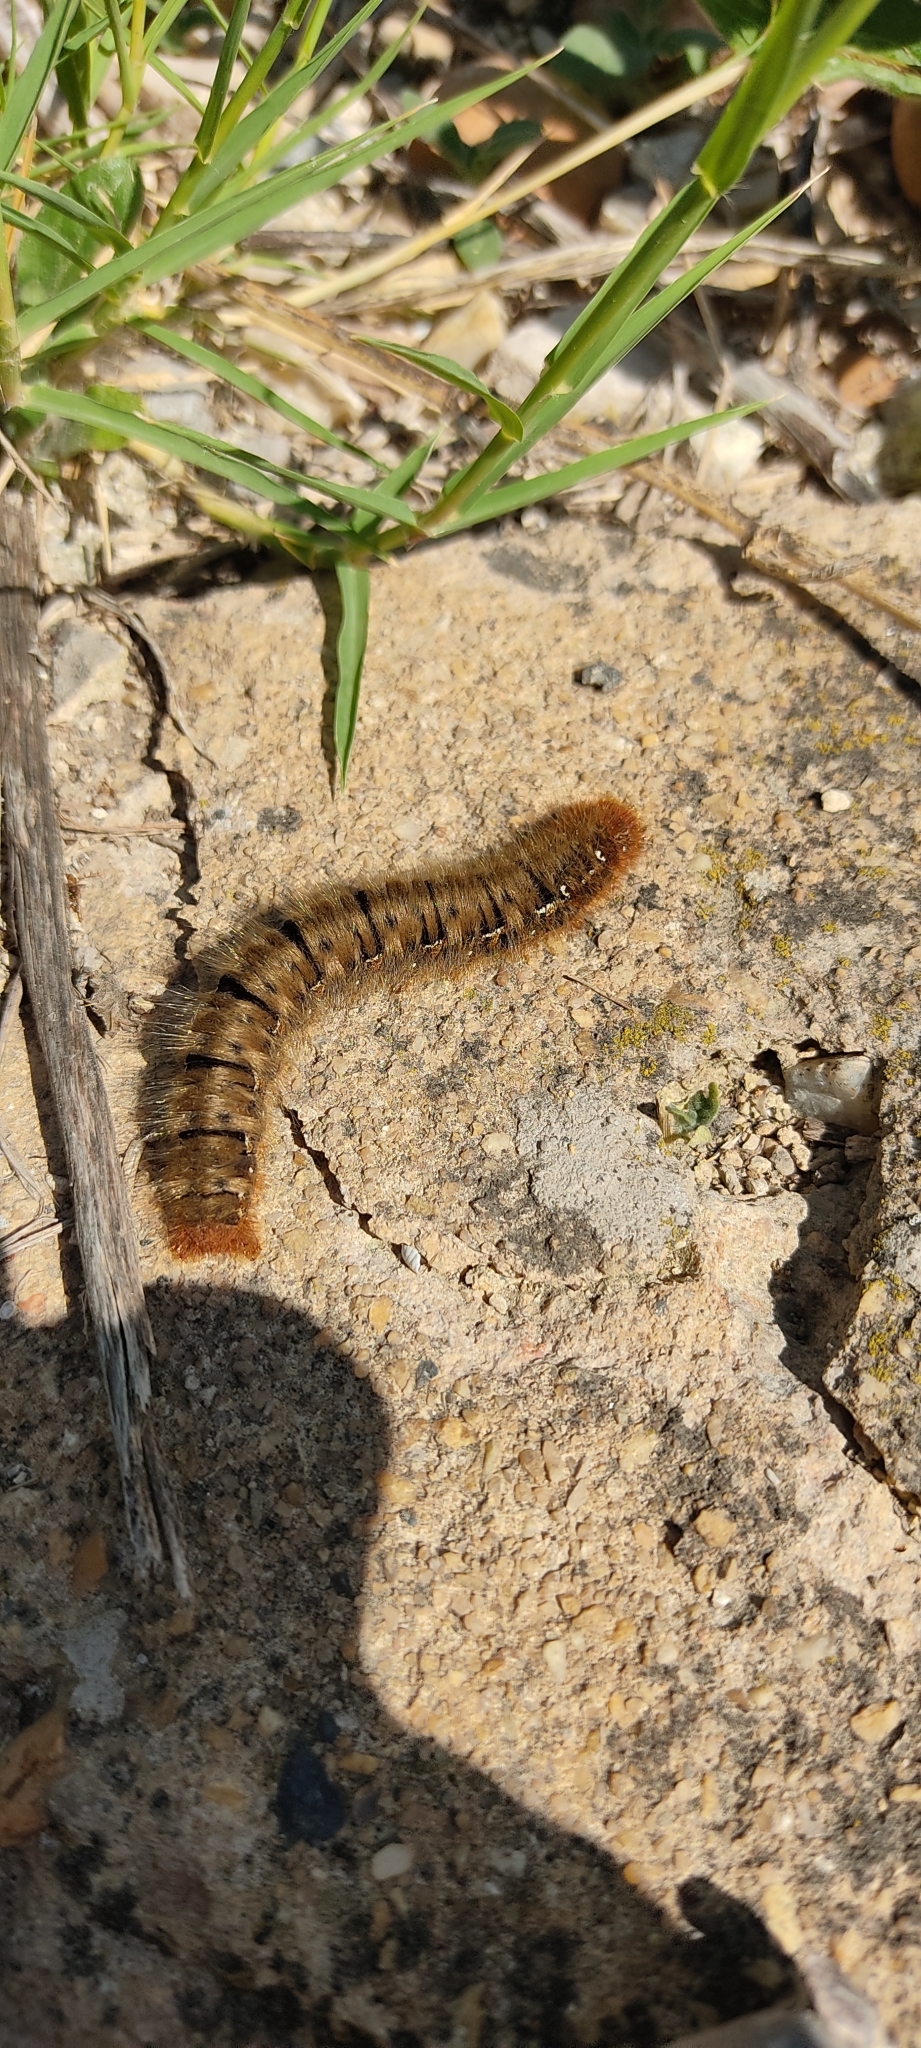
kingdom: Animalia
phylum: Arthropoda
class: Insecta
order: Lepidoptera
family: Lasiocampidae
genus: Lasiocampa
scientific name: Lasiocampa quercus
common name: Oak eggar
